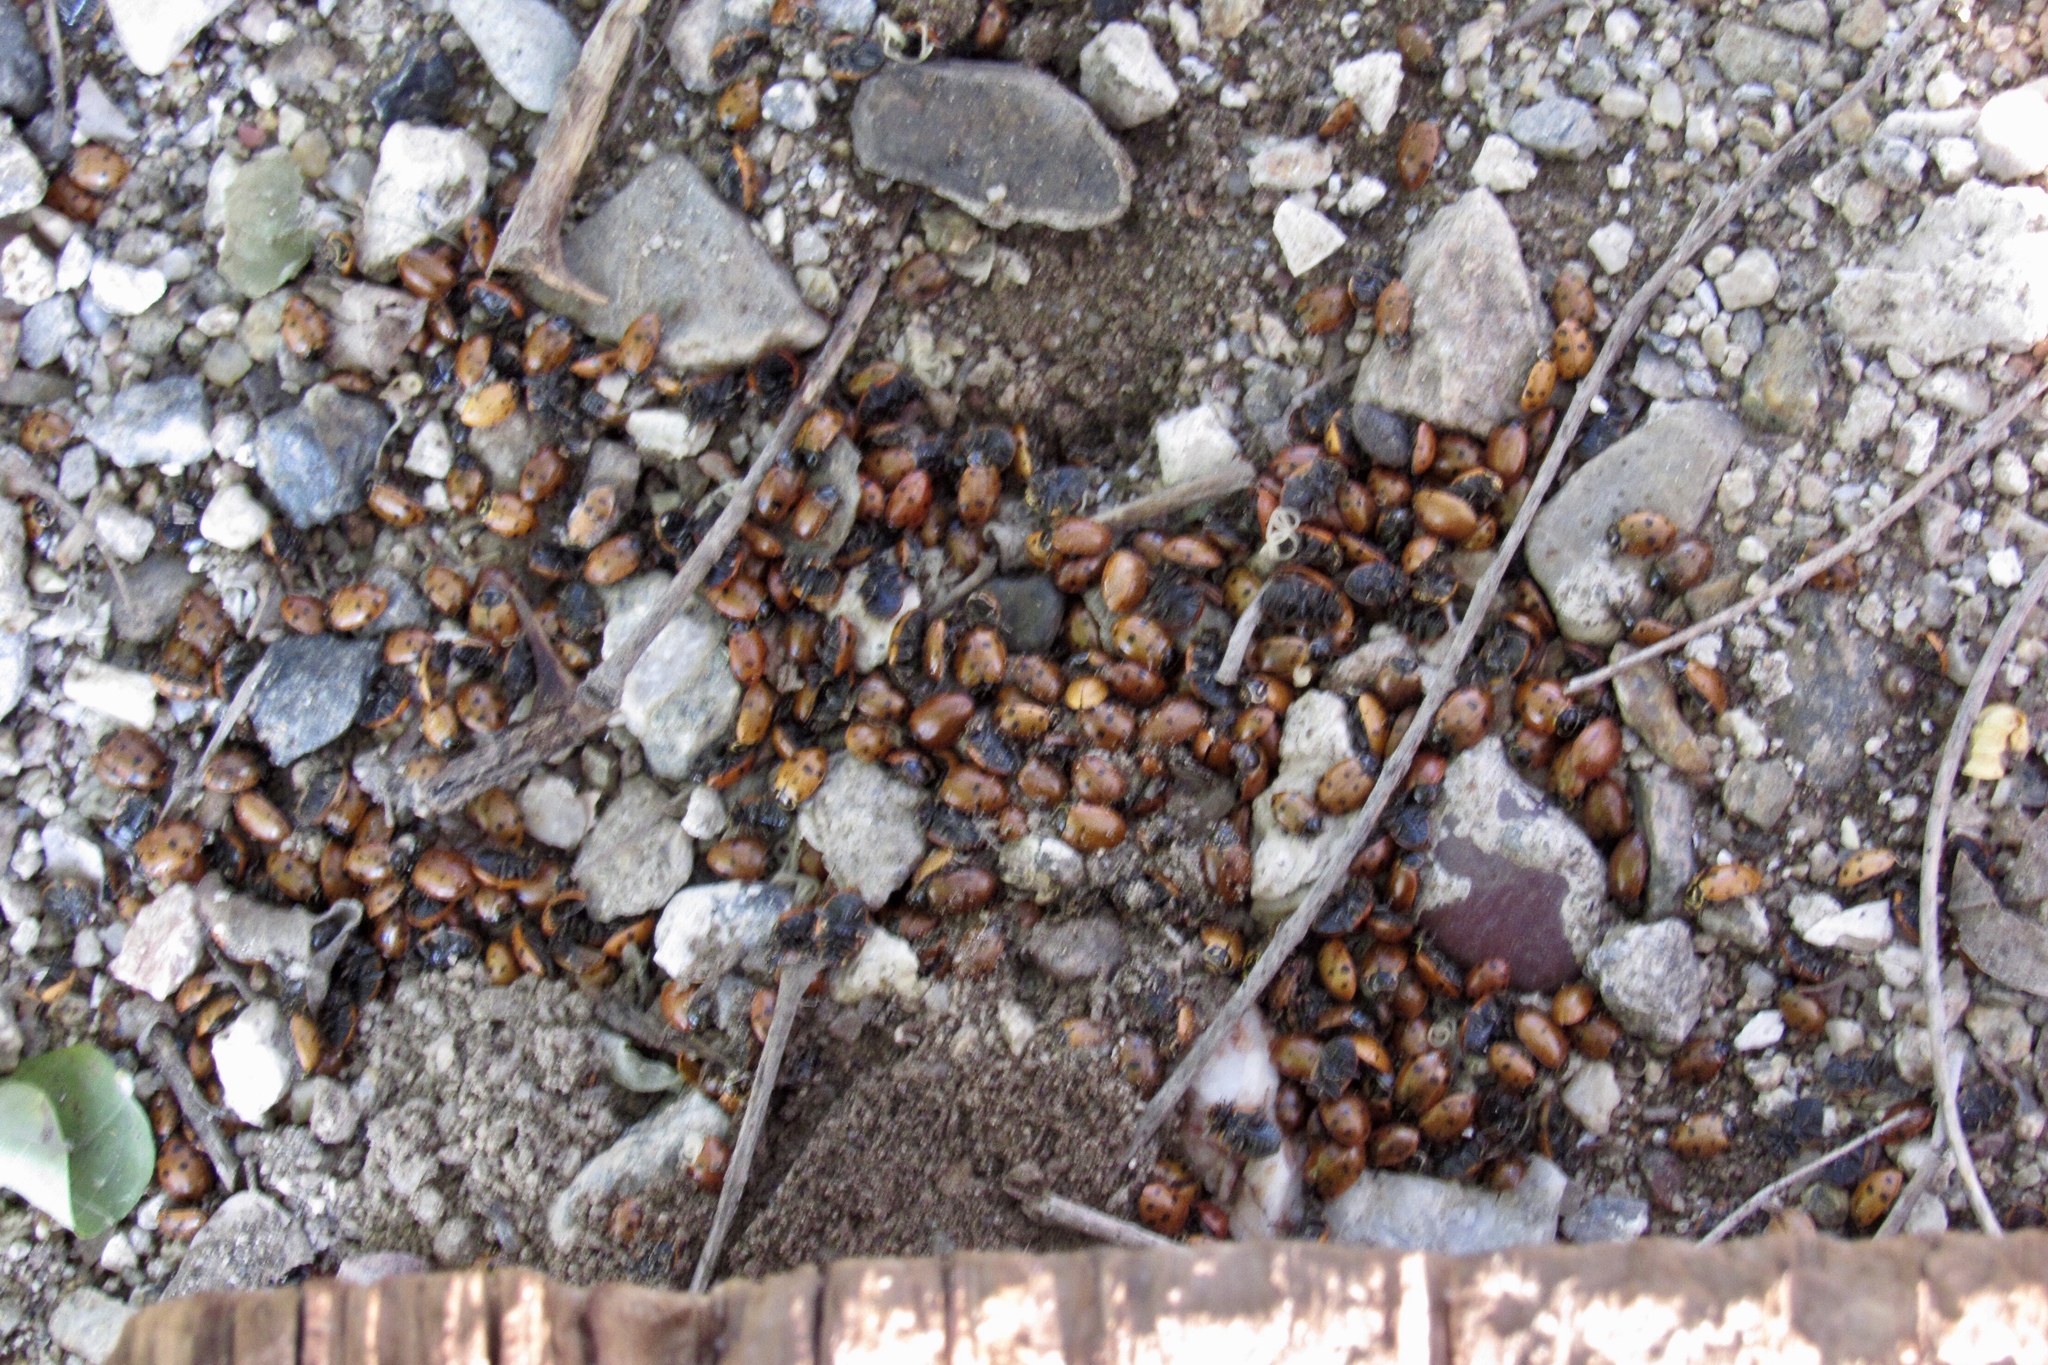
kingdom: Animalia
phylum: Arthropoda
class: Insecta
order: Coleoptera
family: Coccinellidae
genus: Hippodamia
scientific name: Hippodamia convergens
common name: Convergent lady beetle
